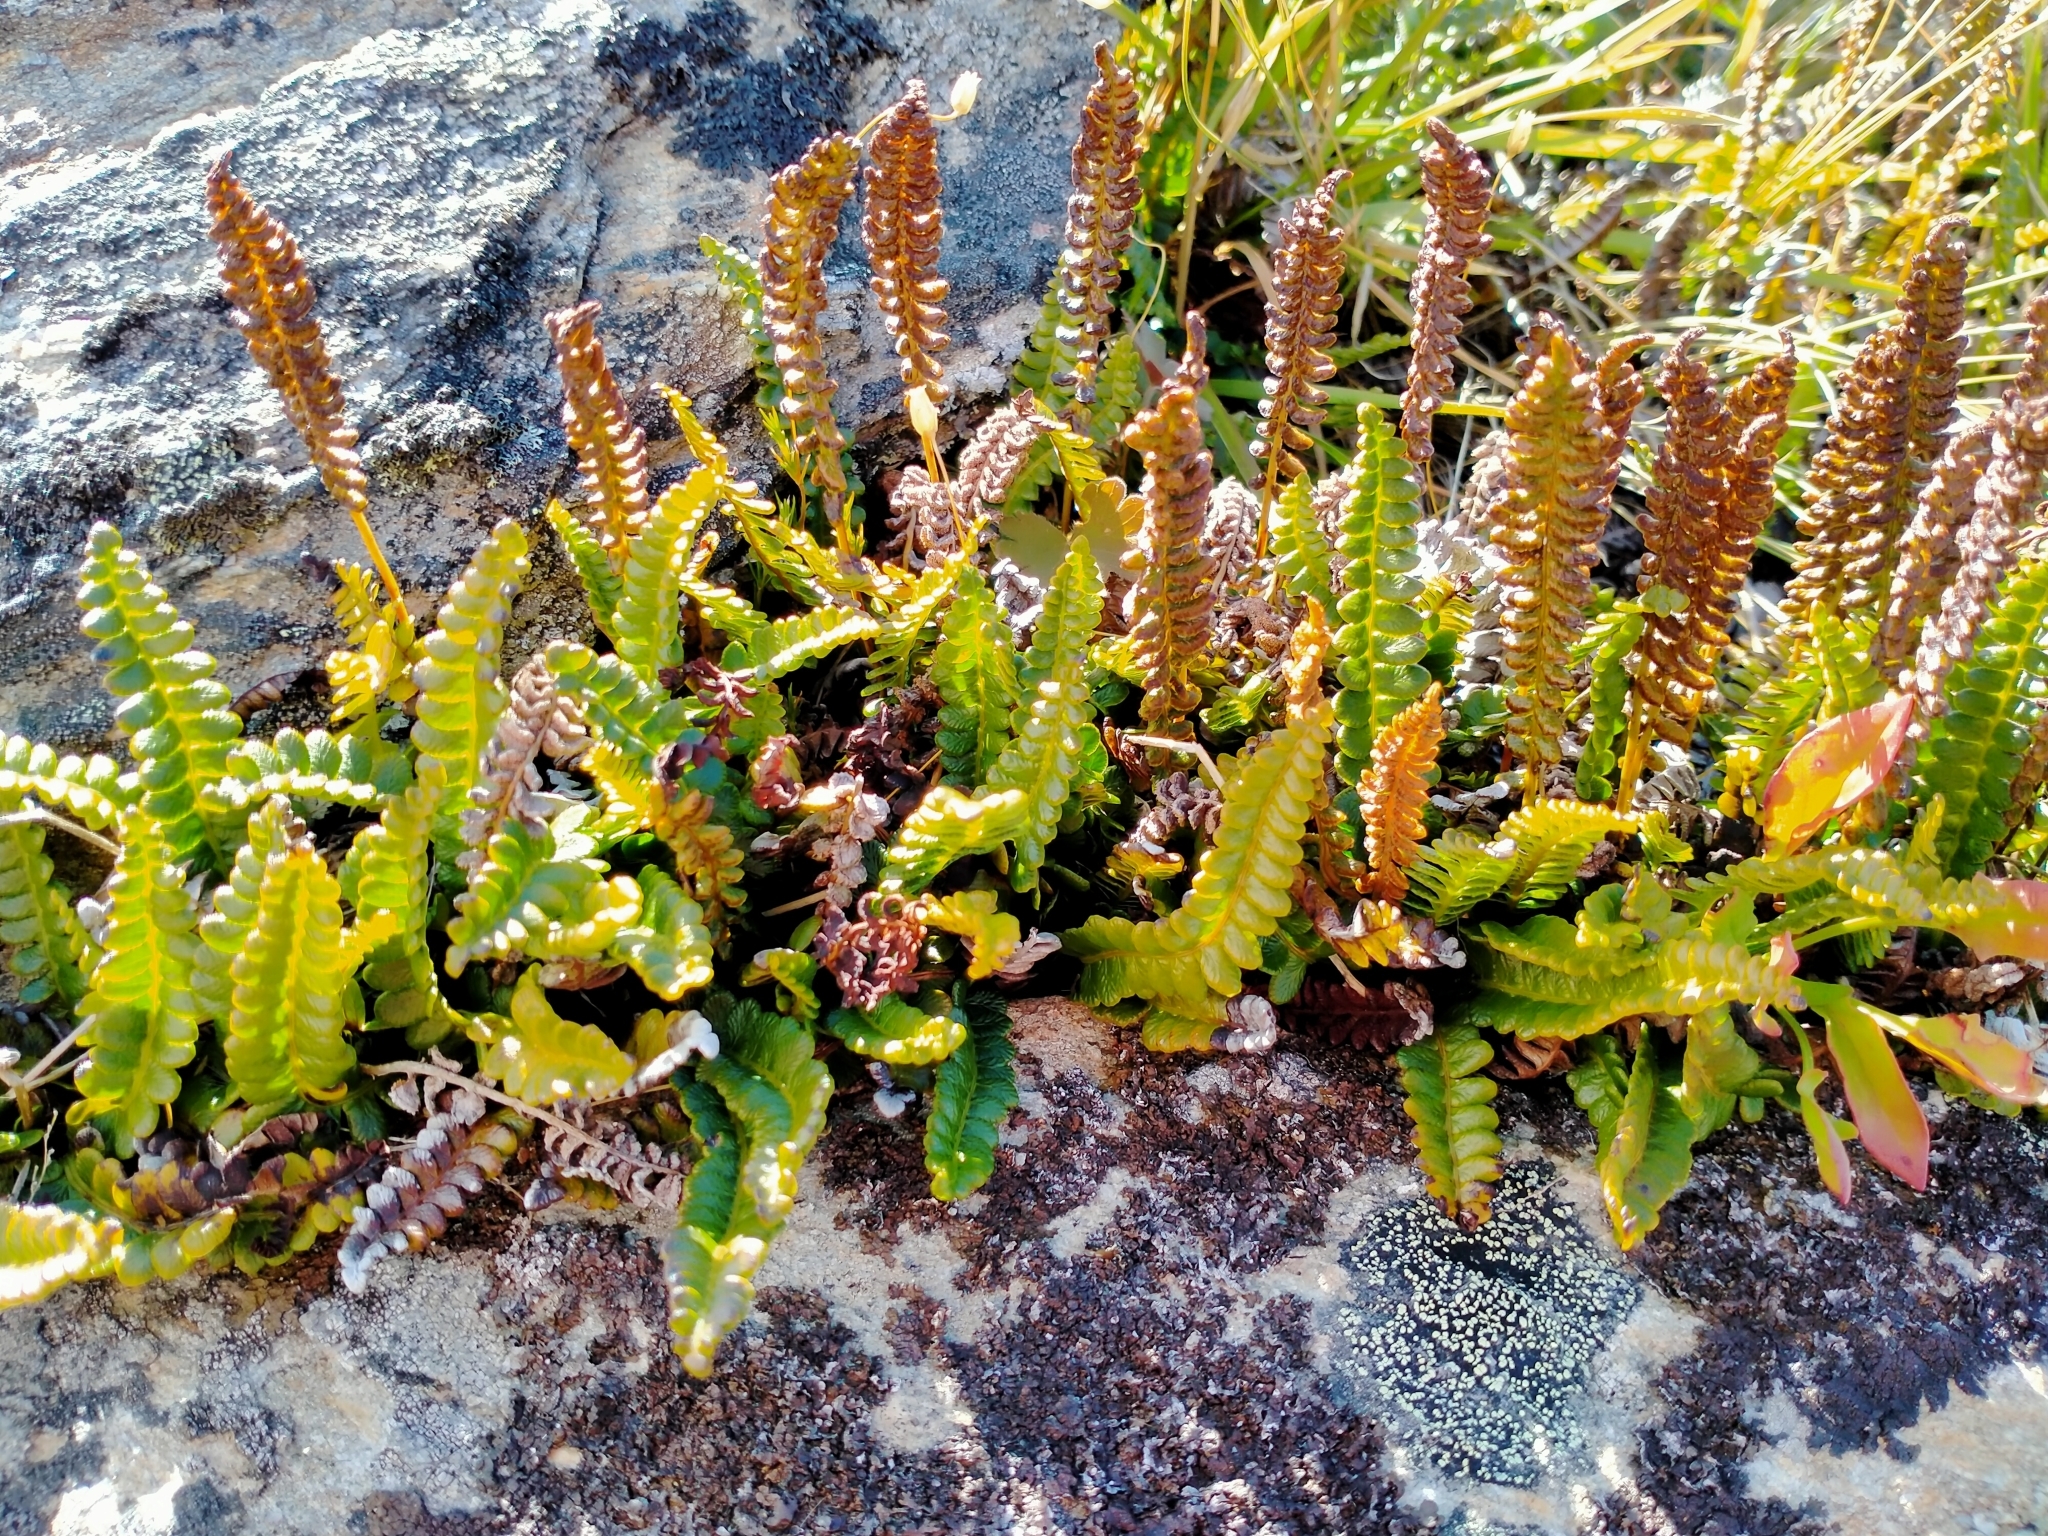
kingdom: Plantae
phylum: Tracheophyta
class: Polypodiopsida
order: Polypodiales
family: Blechnaceae
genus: Austroblechnum
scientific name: Austroblechnum penna-marina
